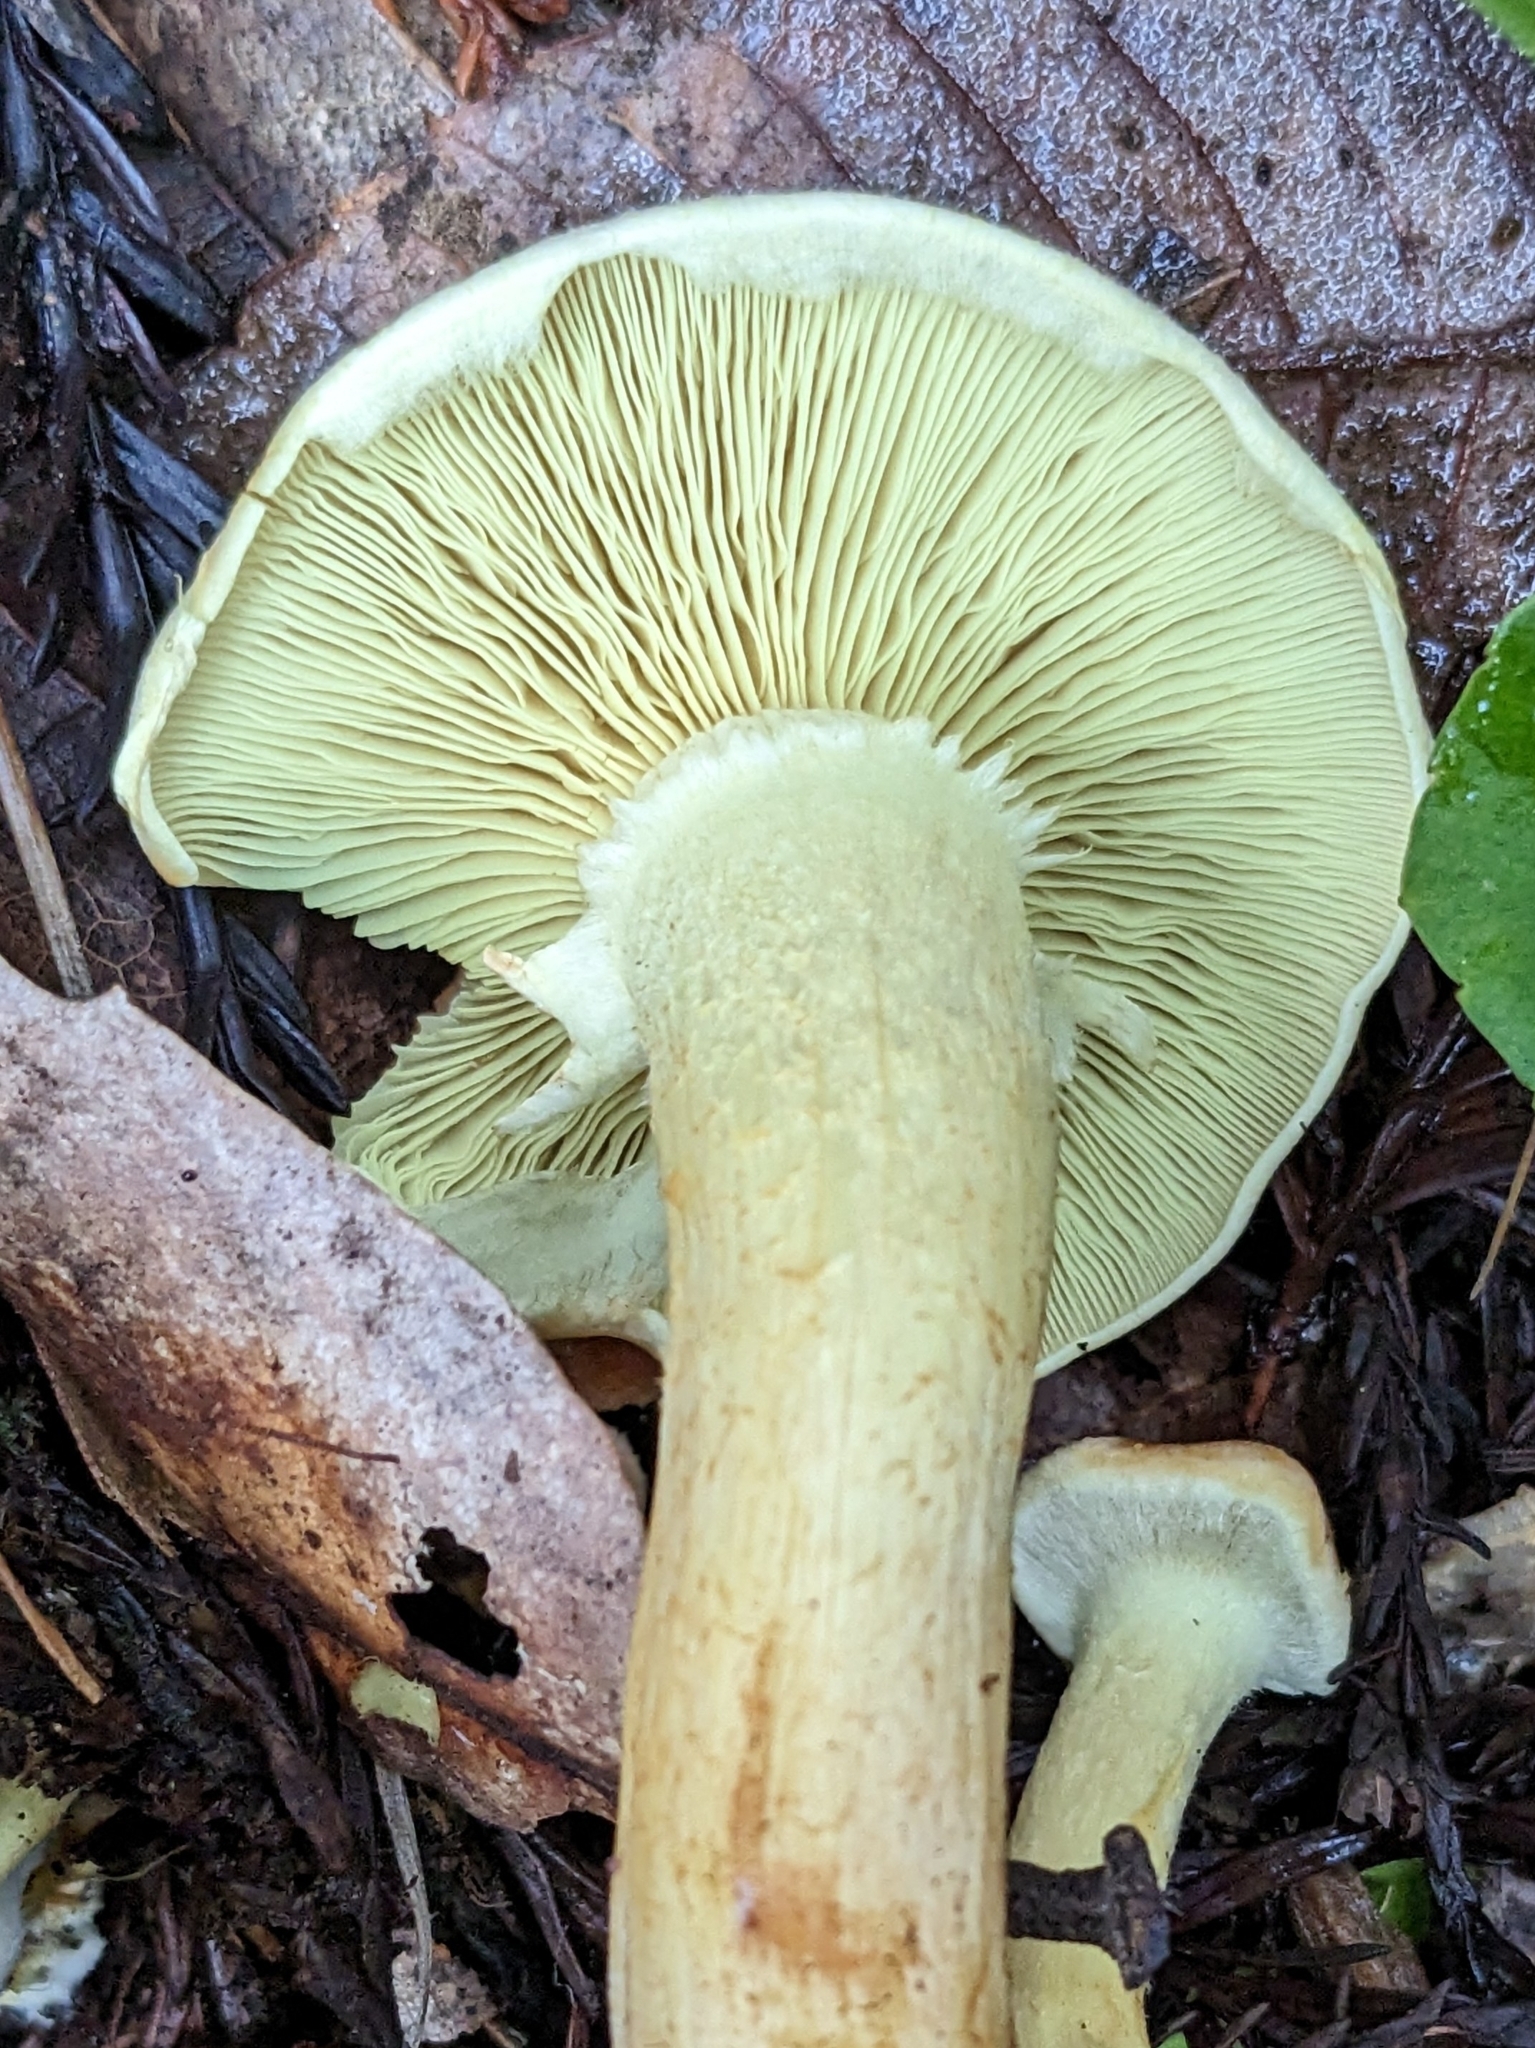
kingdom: Fungi
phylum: Basidiomycota
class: Agaricomycetes
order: Agaricales
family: Strophariaceae
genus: Hypholoma
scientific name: Hypholoma fasciculare
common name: Sulphur tuft
